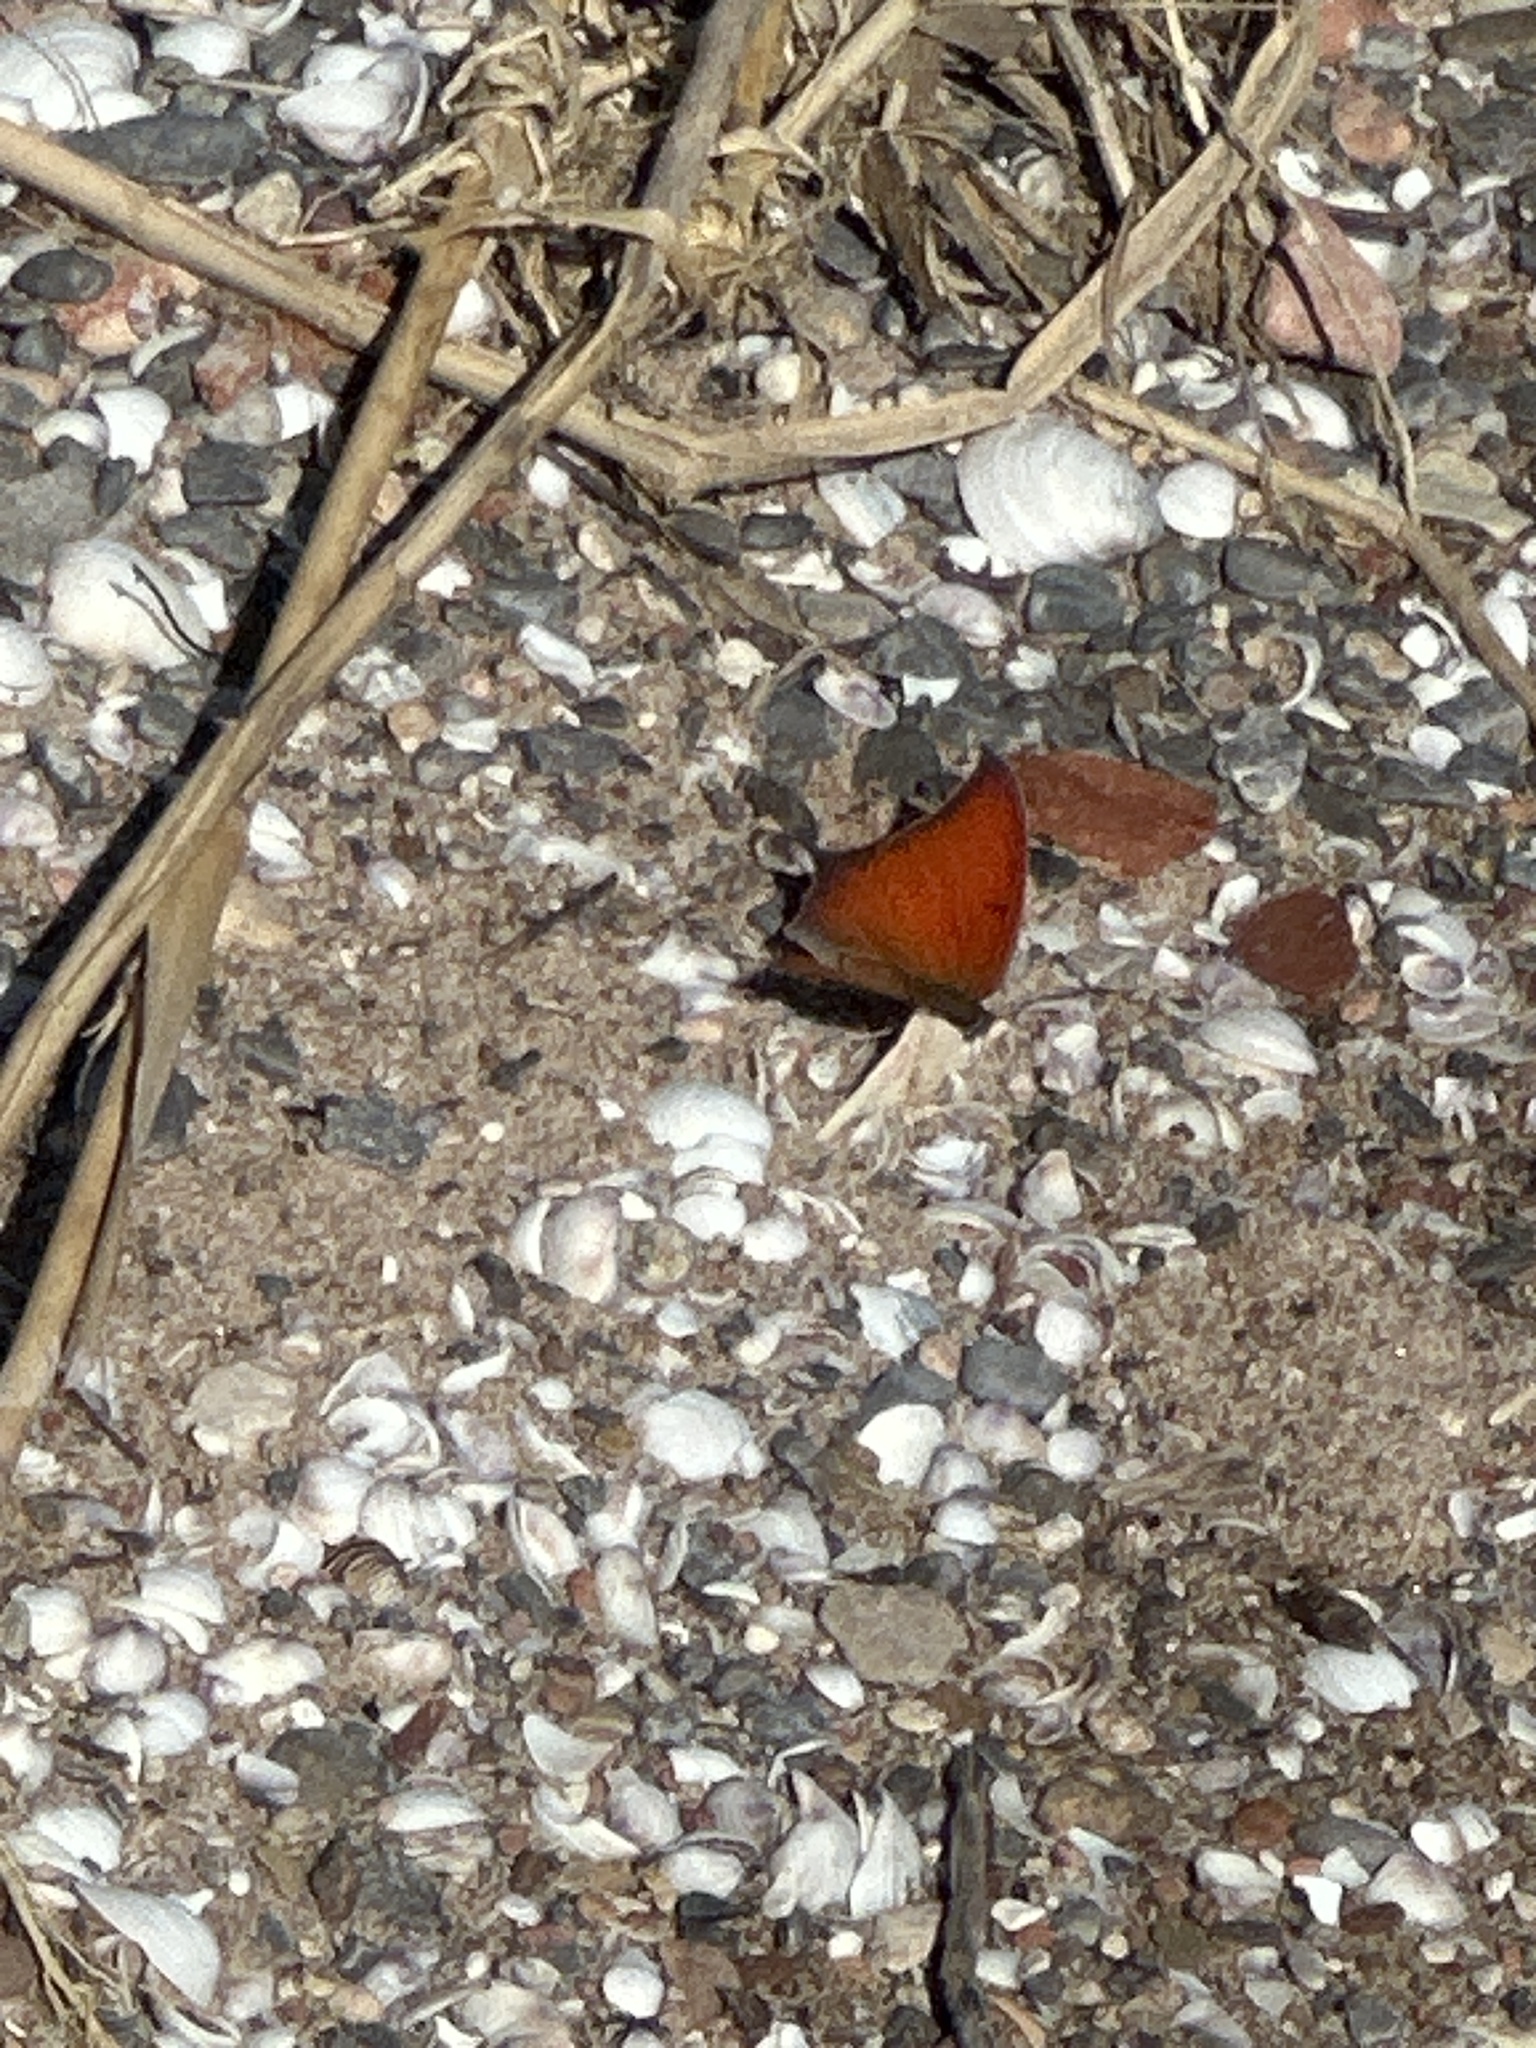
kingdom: Animalia
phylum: Arthropoda
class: Insecta
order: Lepidoptera
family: Nymphalidae
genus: Anaea
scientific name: Anaea andria
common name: Goatweed leafwing
